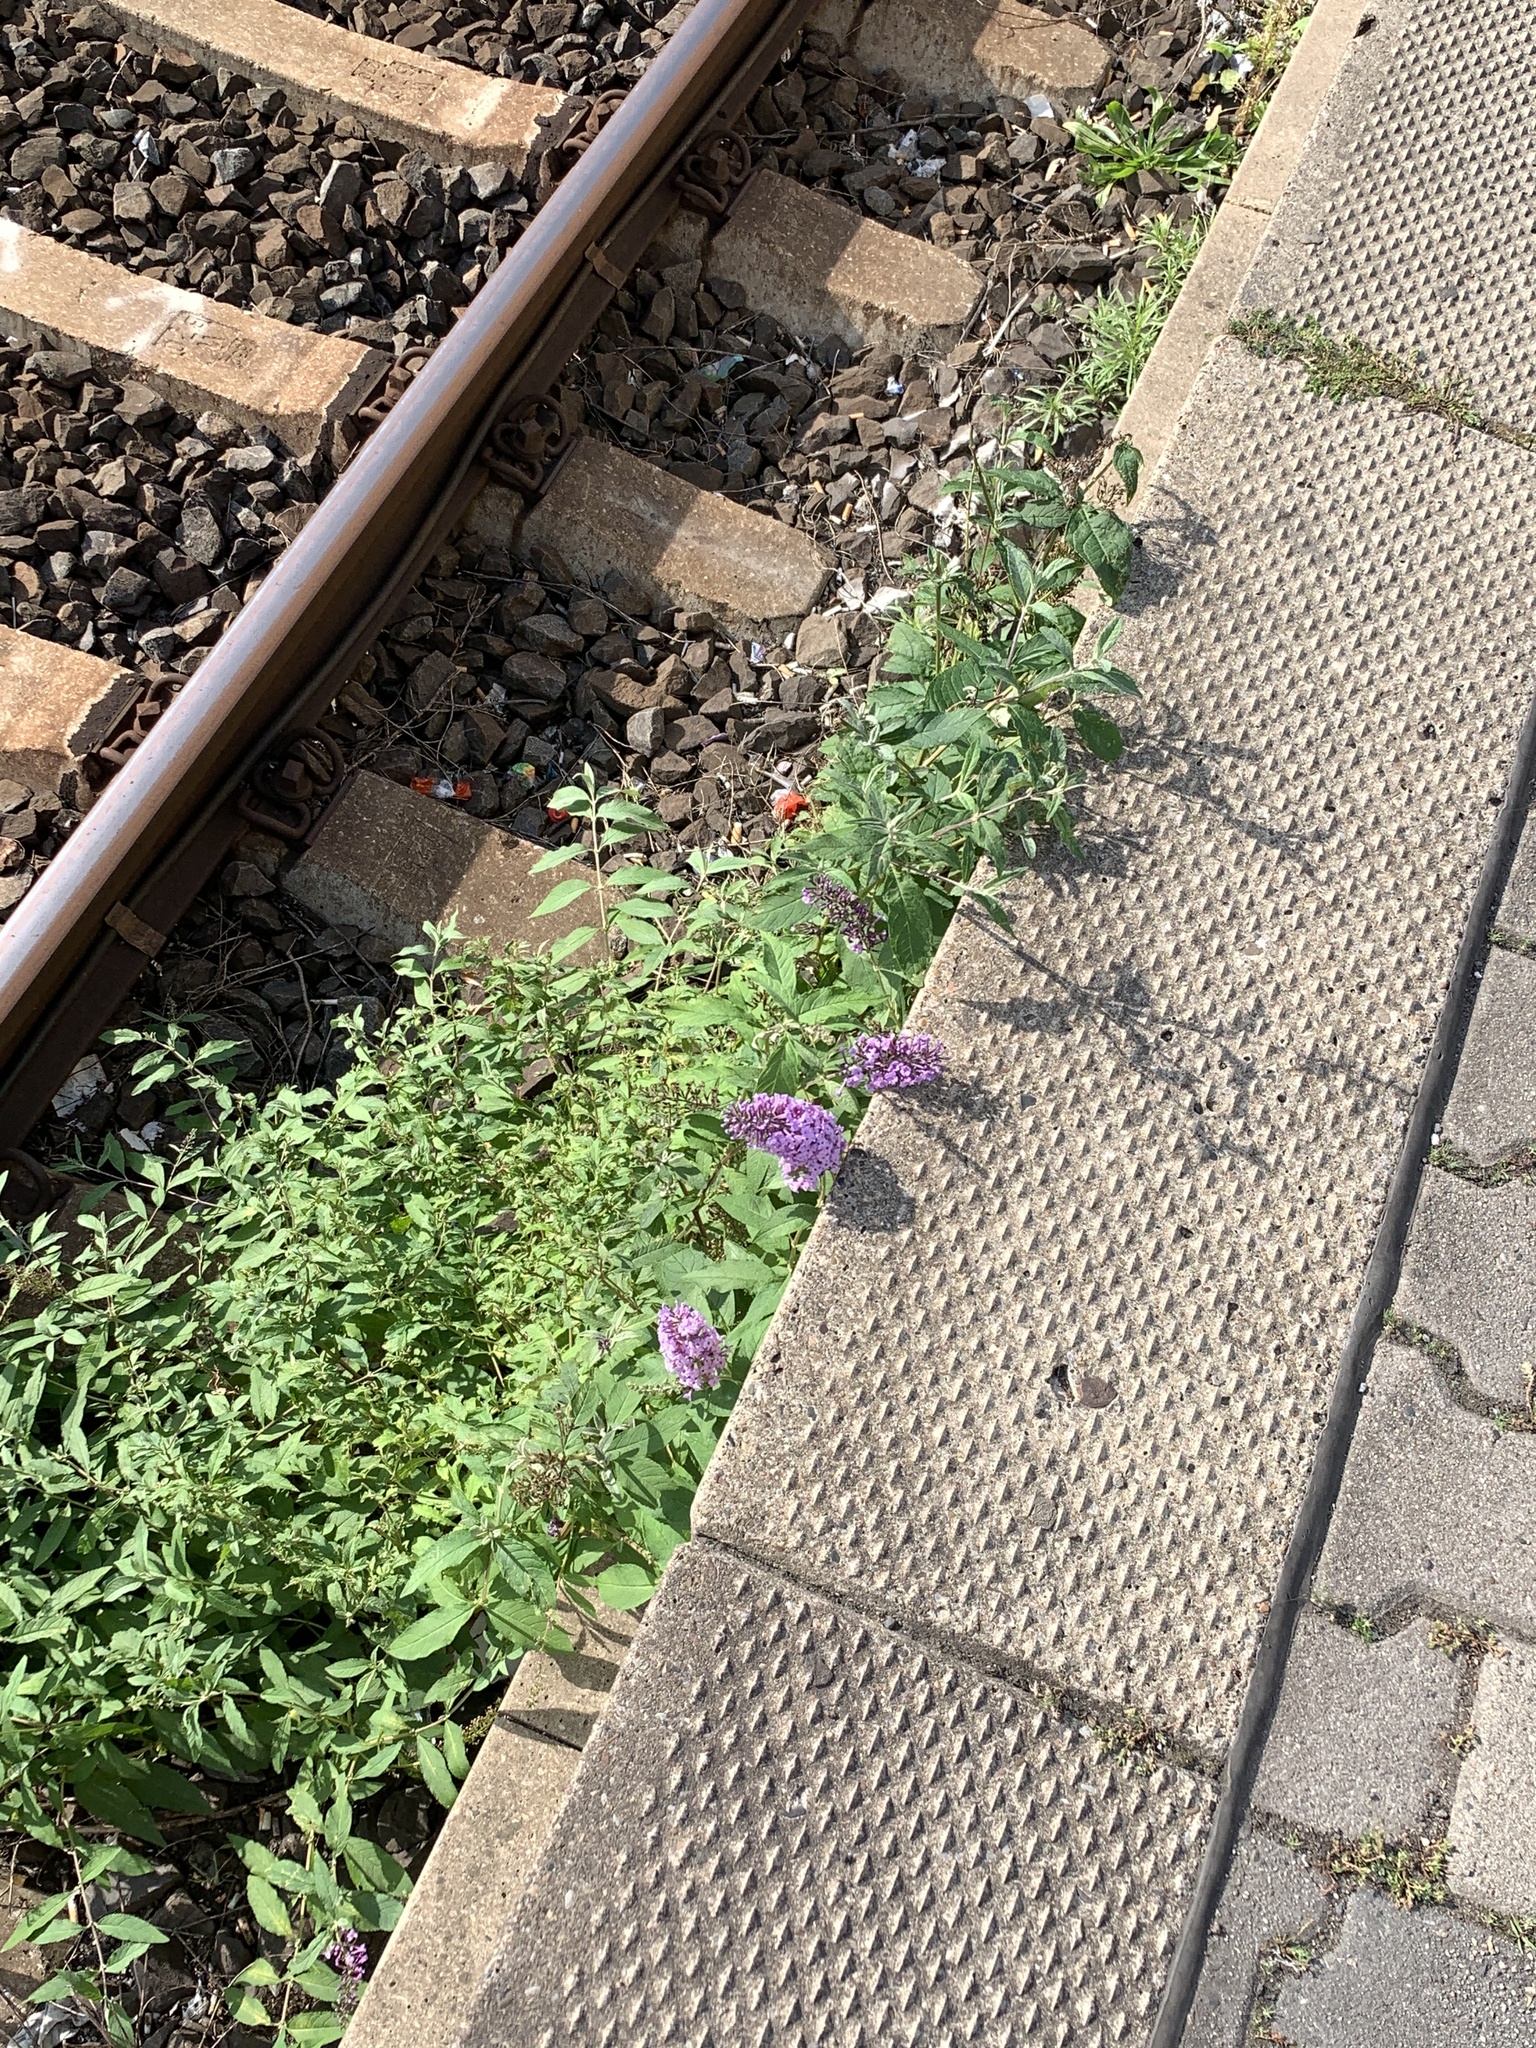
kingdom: Plantae
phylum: Tracheophyta
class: Magnoliopsida
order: Lamiales
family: Scrophulariaceae
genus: Buddleja
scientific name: Buddleja davidii
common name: Butterfly-bush
